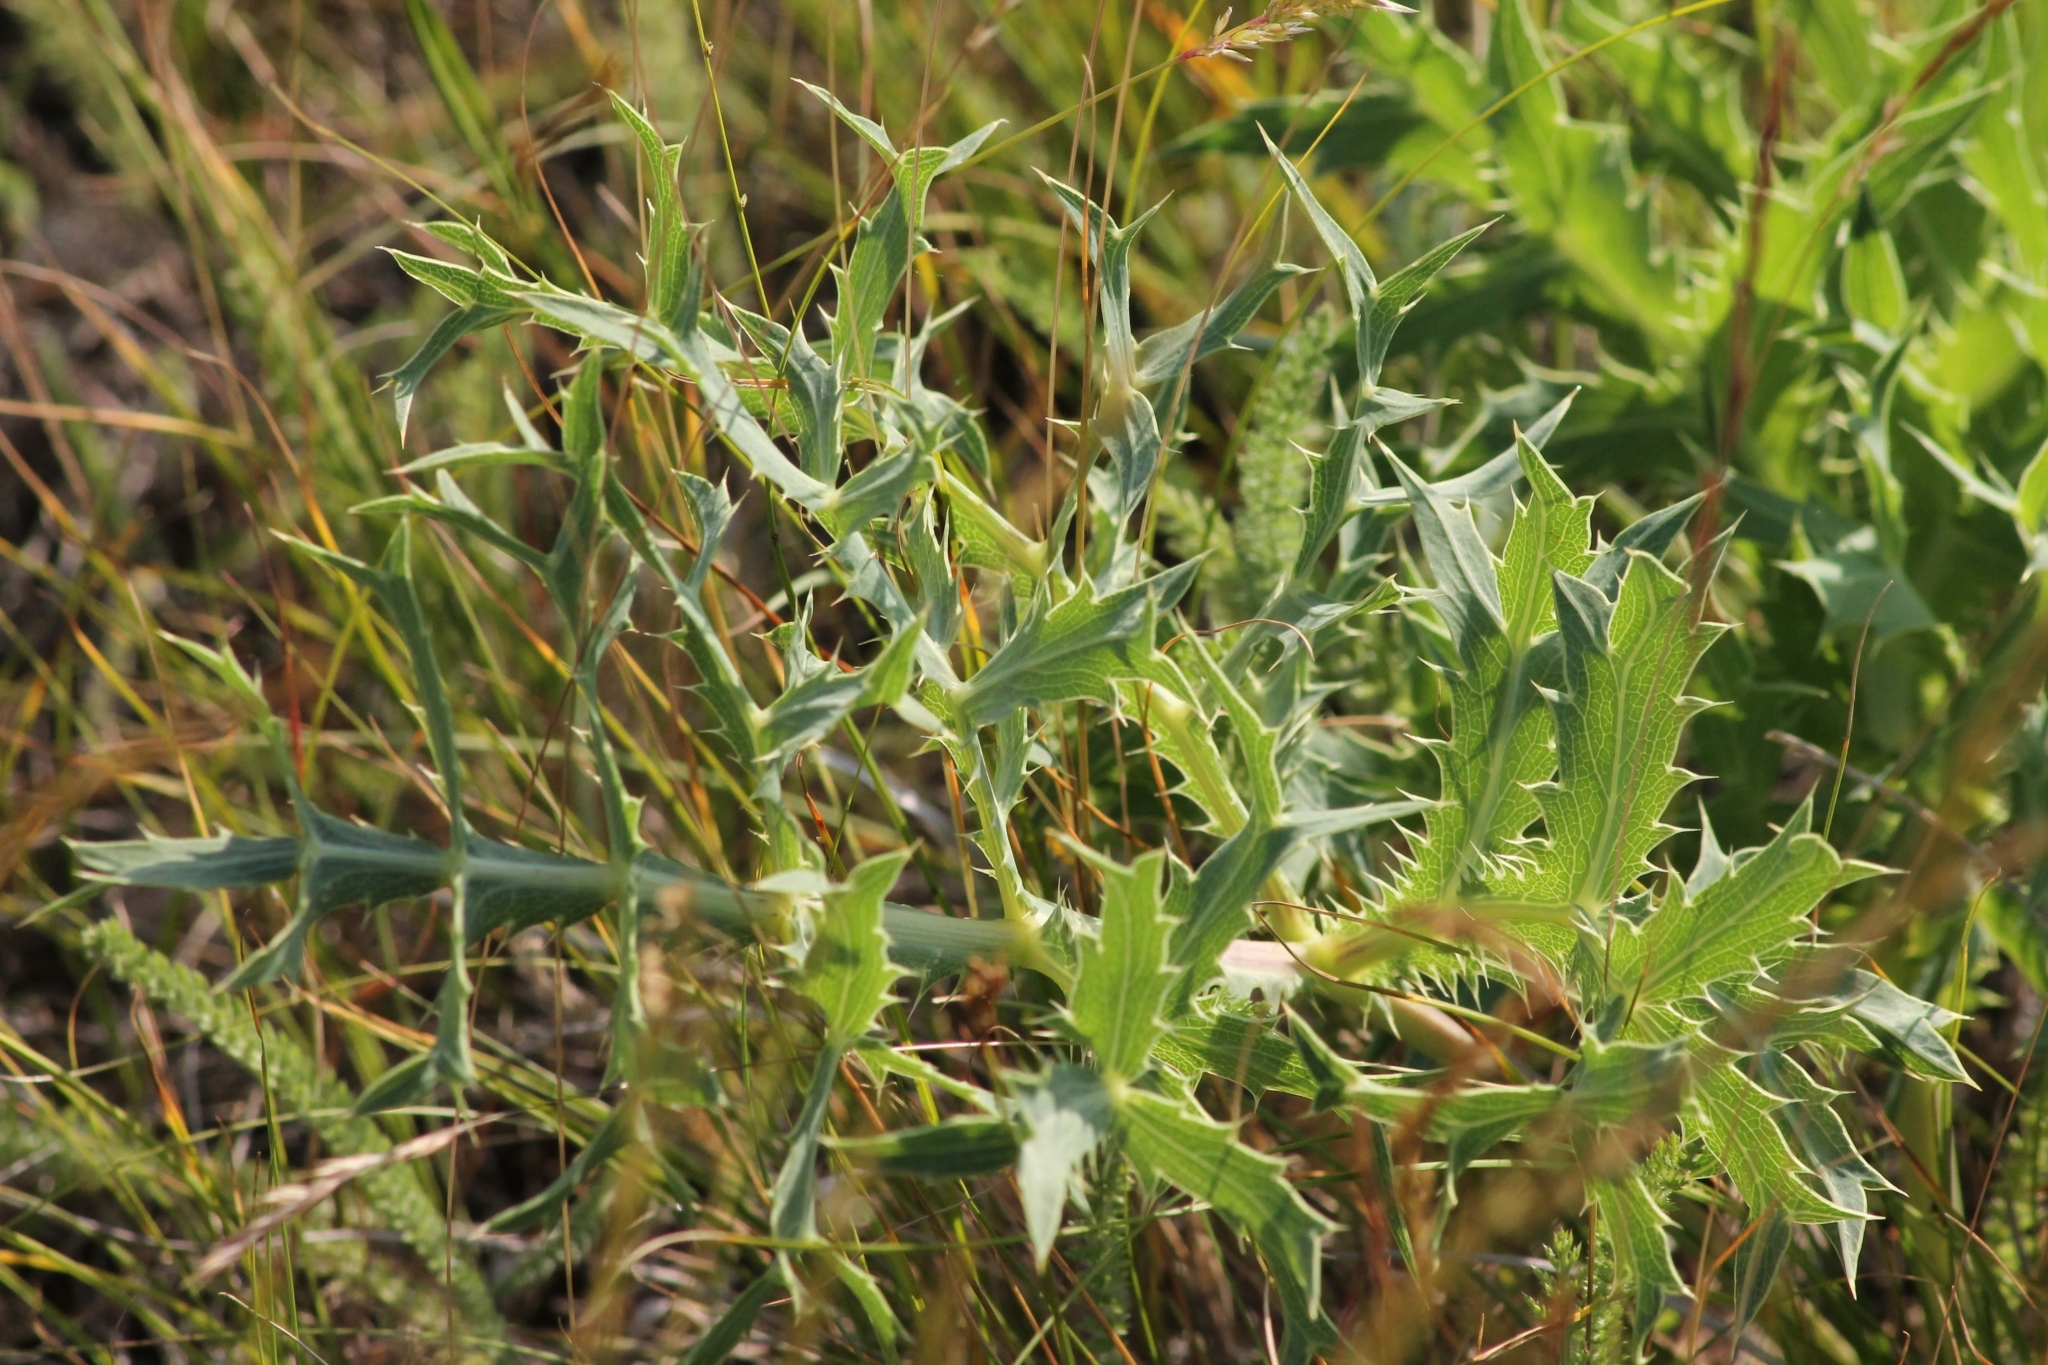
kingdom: Plantae
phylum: Tracheophyta
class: Magnoliopsida
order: Apiales
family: Apiaceae
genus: Eryngium
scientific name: Eryngium campestre
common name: Field eryngo
